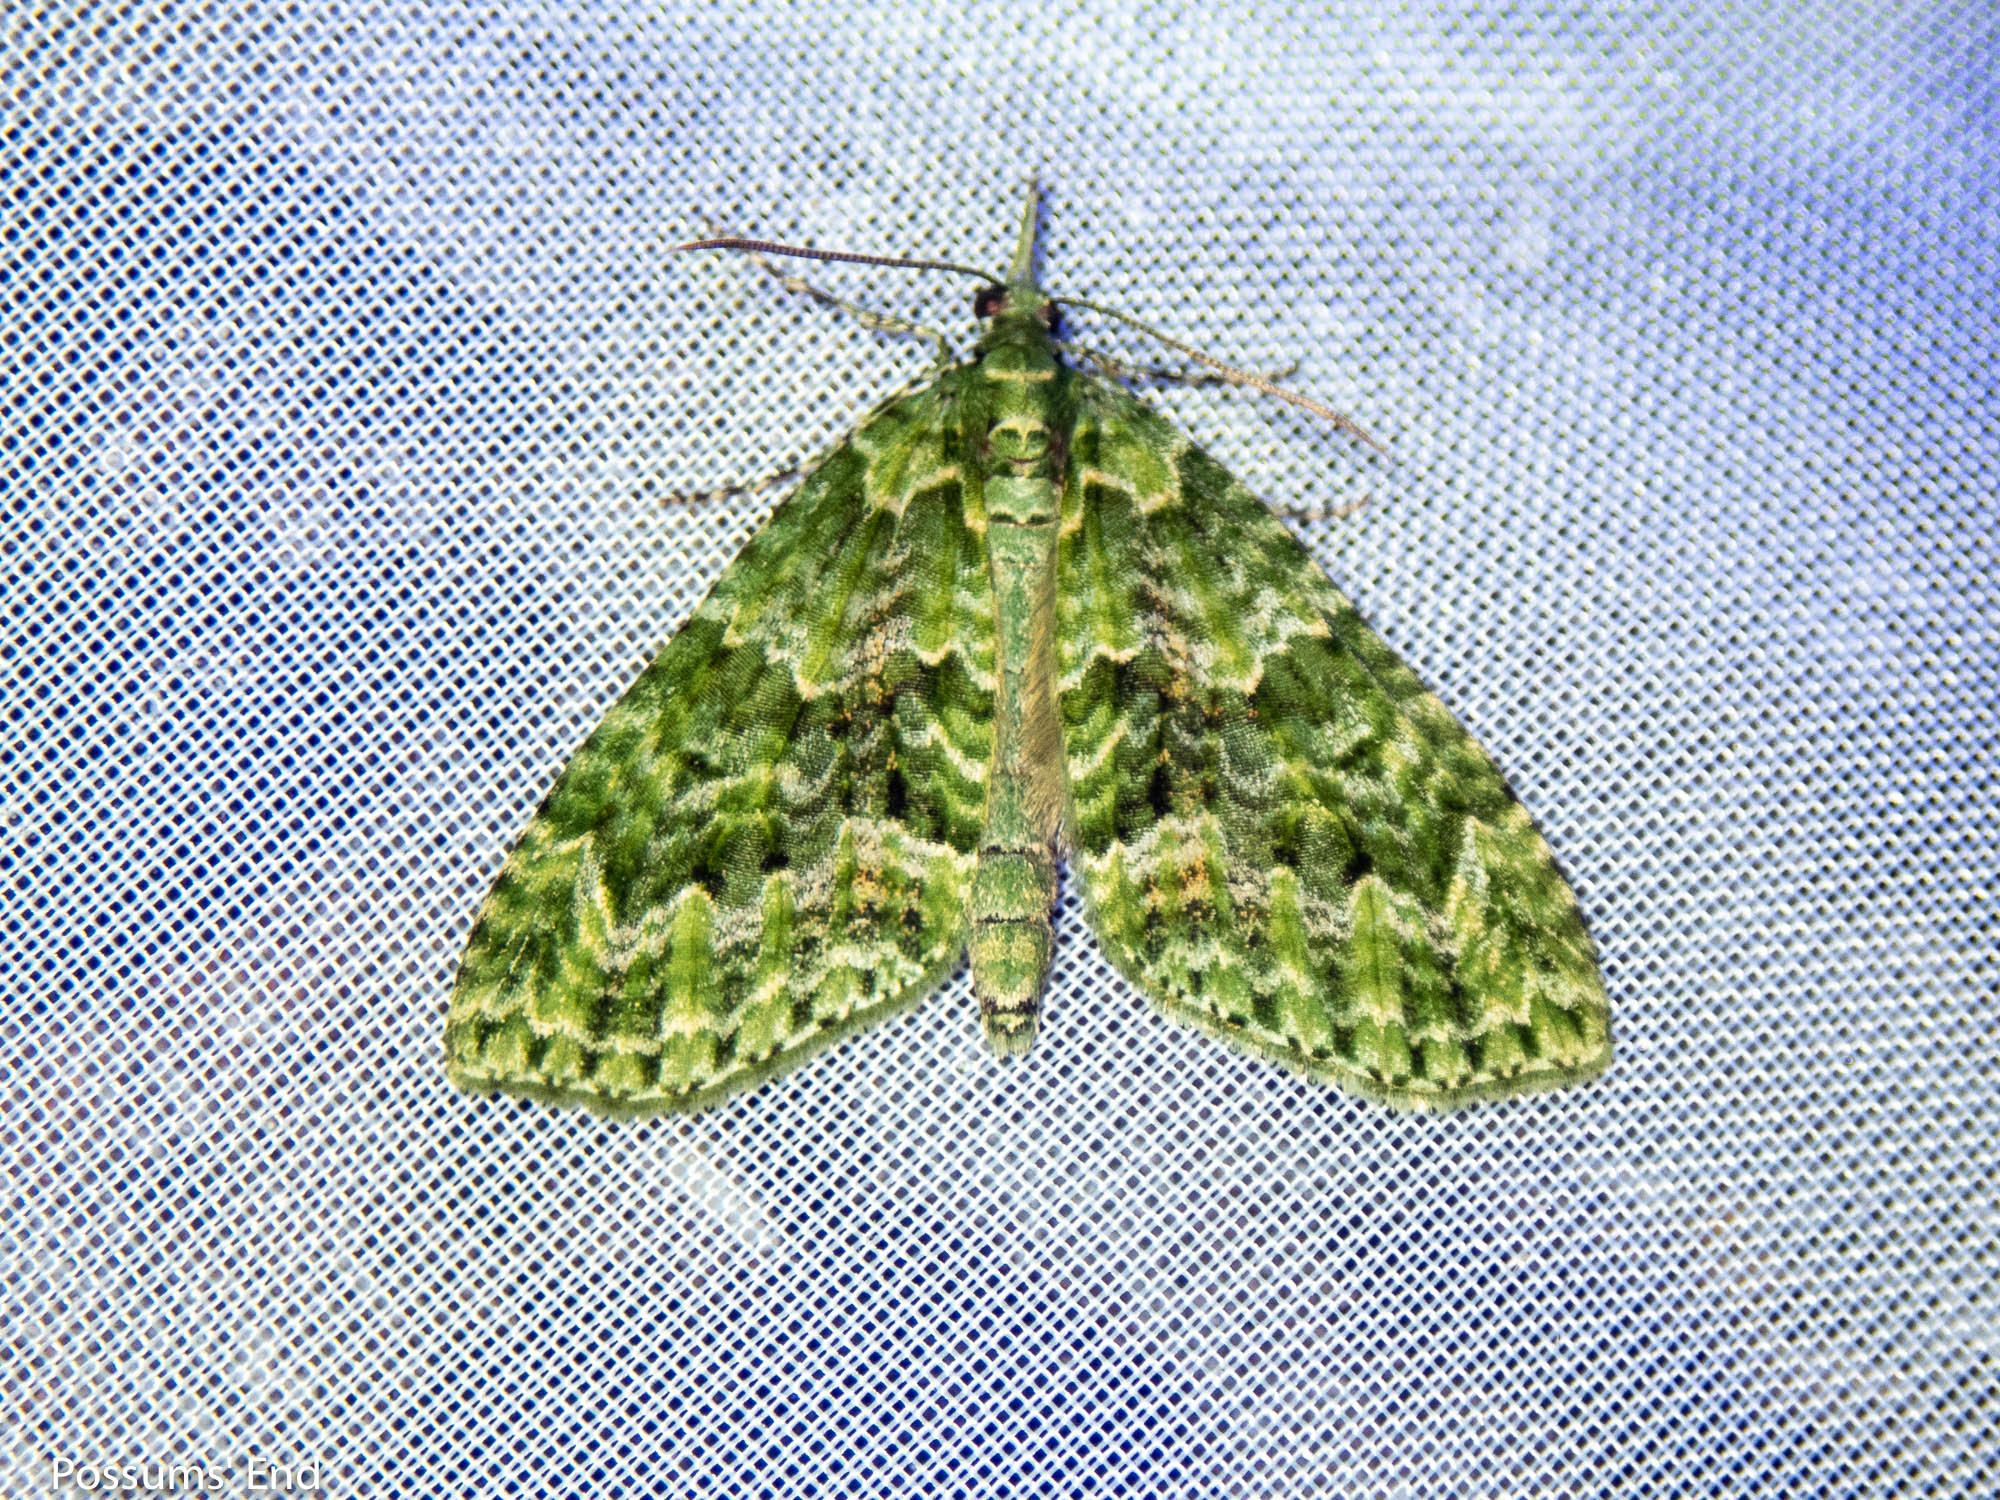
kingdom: Animalia
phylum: Arthropoda
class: Insecta
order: Lepidoptera
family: Geometridae
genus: Tatosoma
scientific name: Tatosoma tipulata
